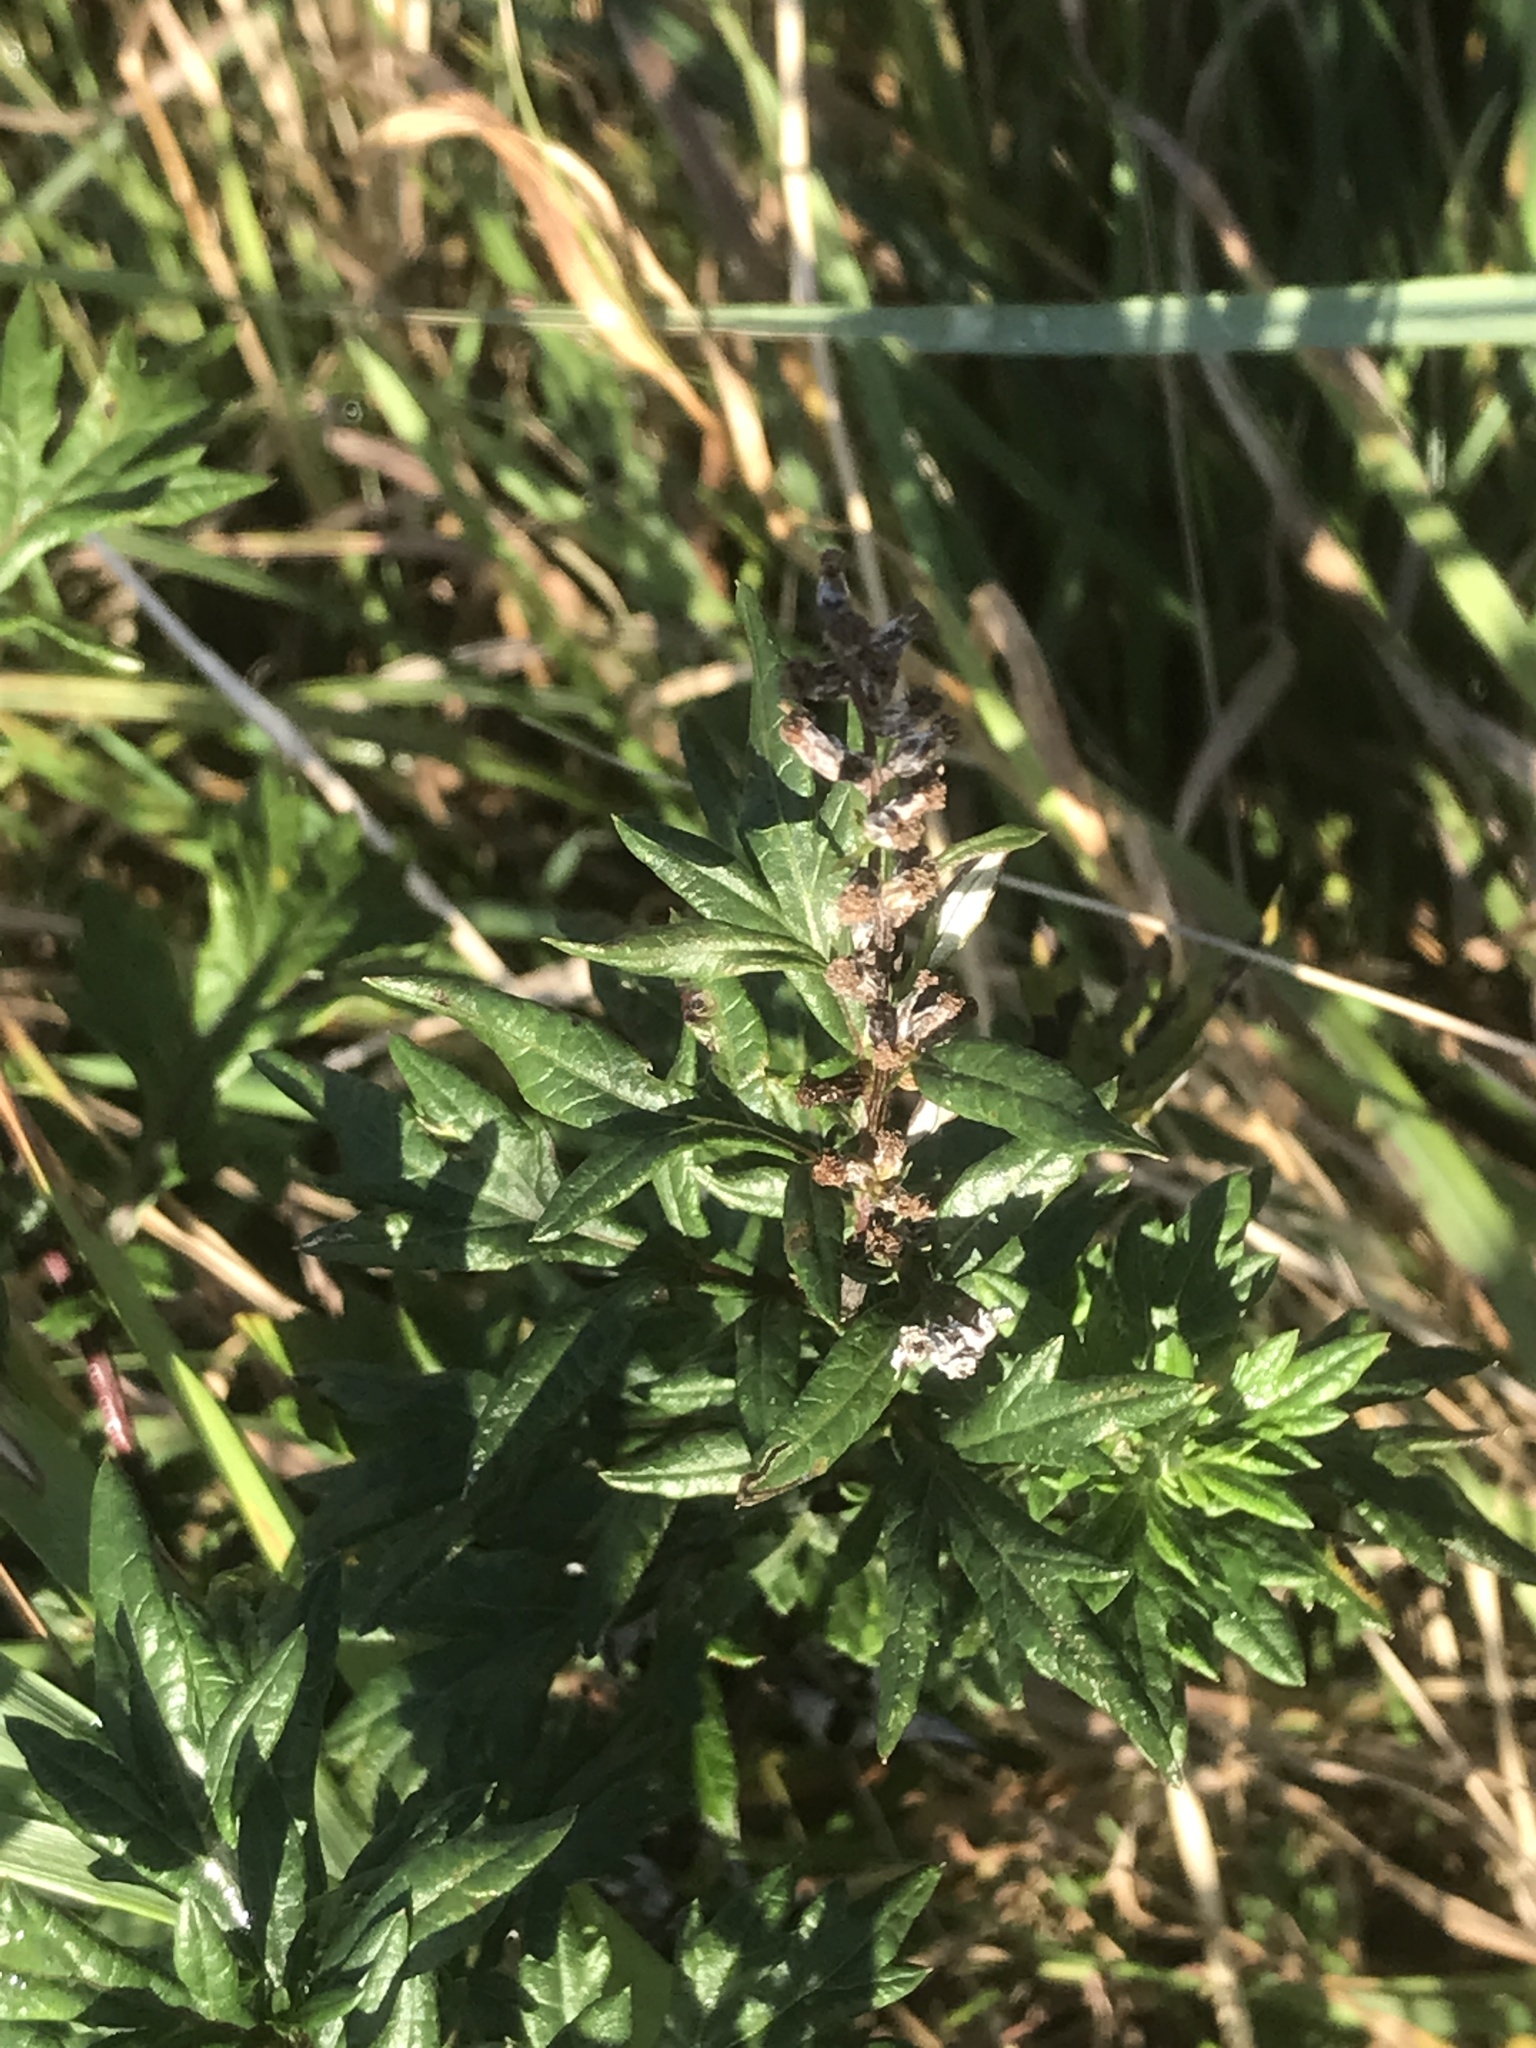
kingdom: Plantae
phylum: Tracheophyta
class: Magnoliopsida
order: Asterales
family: Asteraceae
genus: Artemisia
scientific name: Artemisia vulgaris
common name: Mugwort
